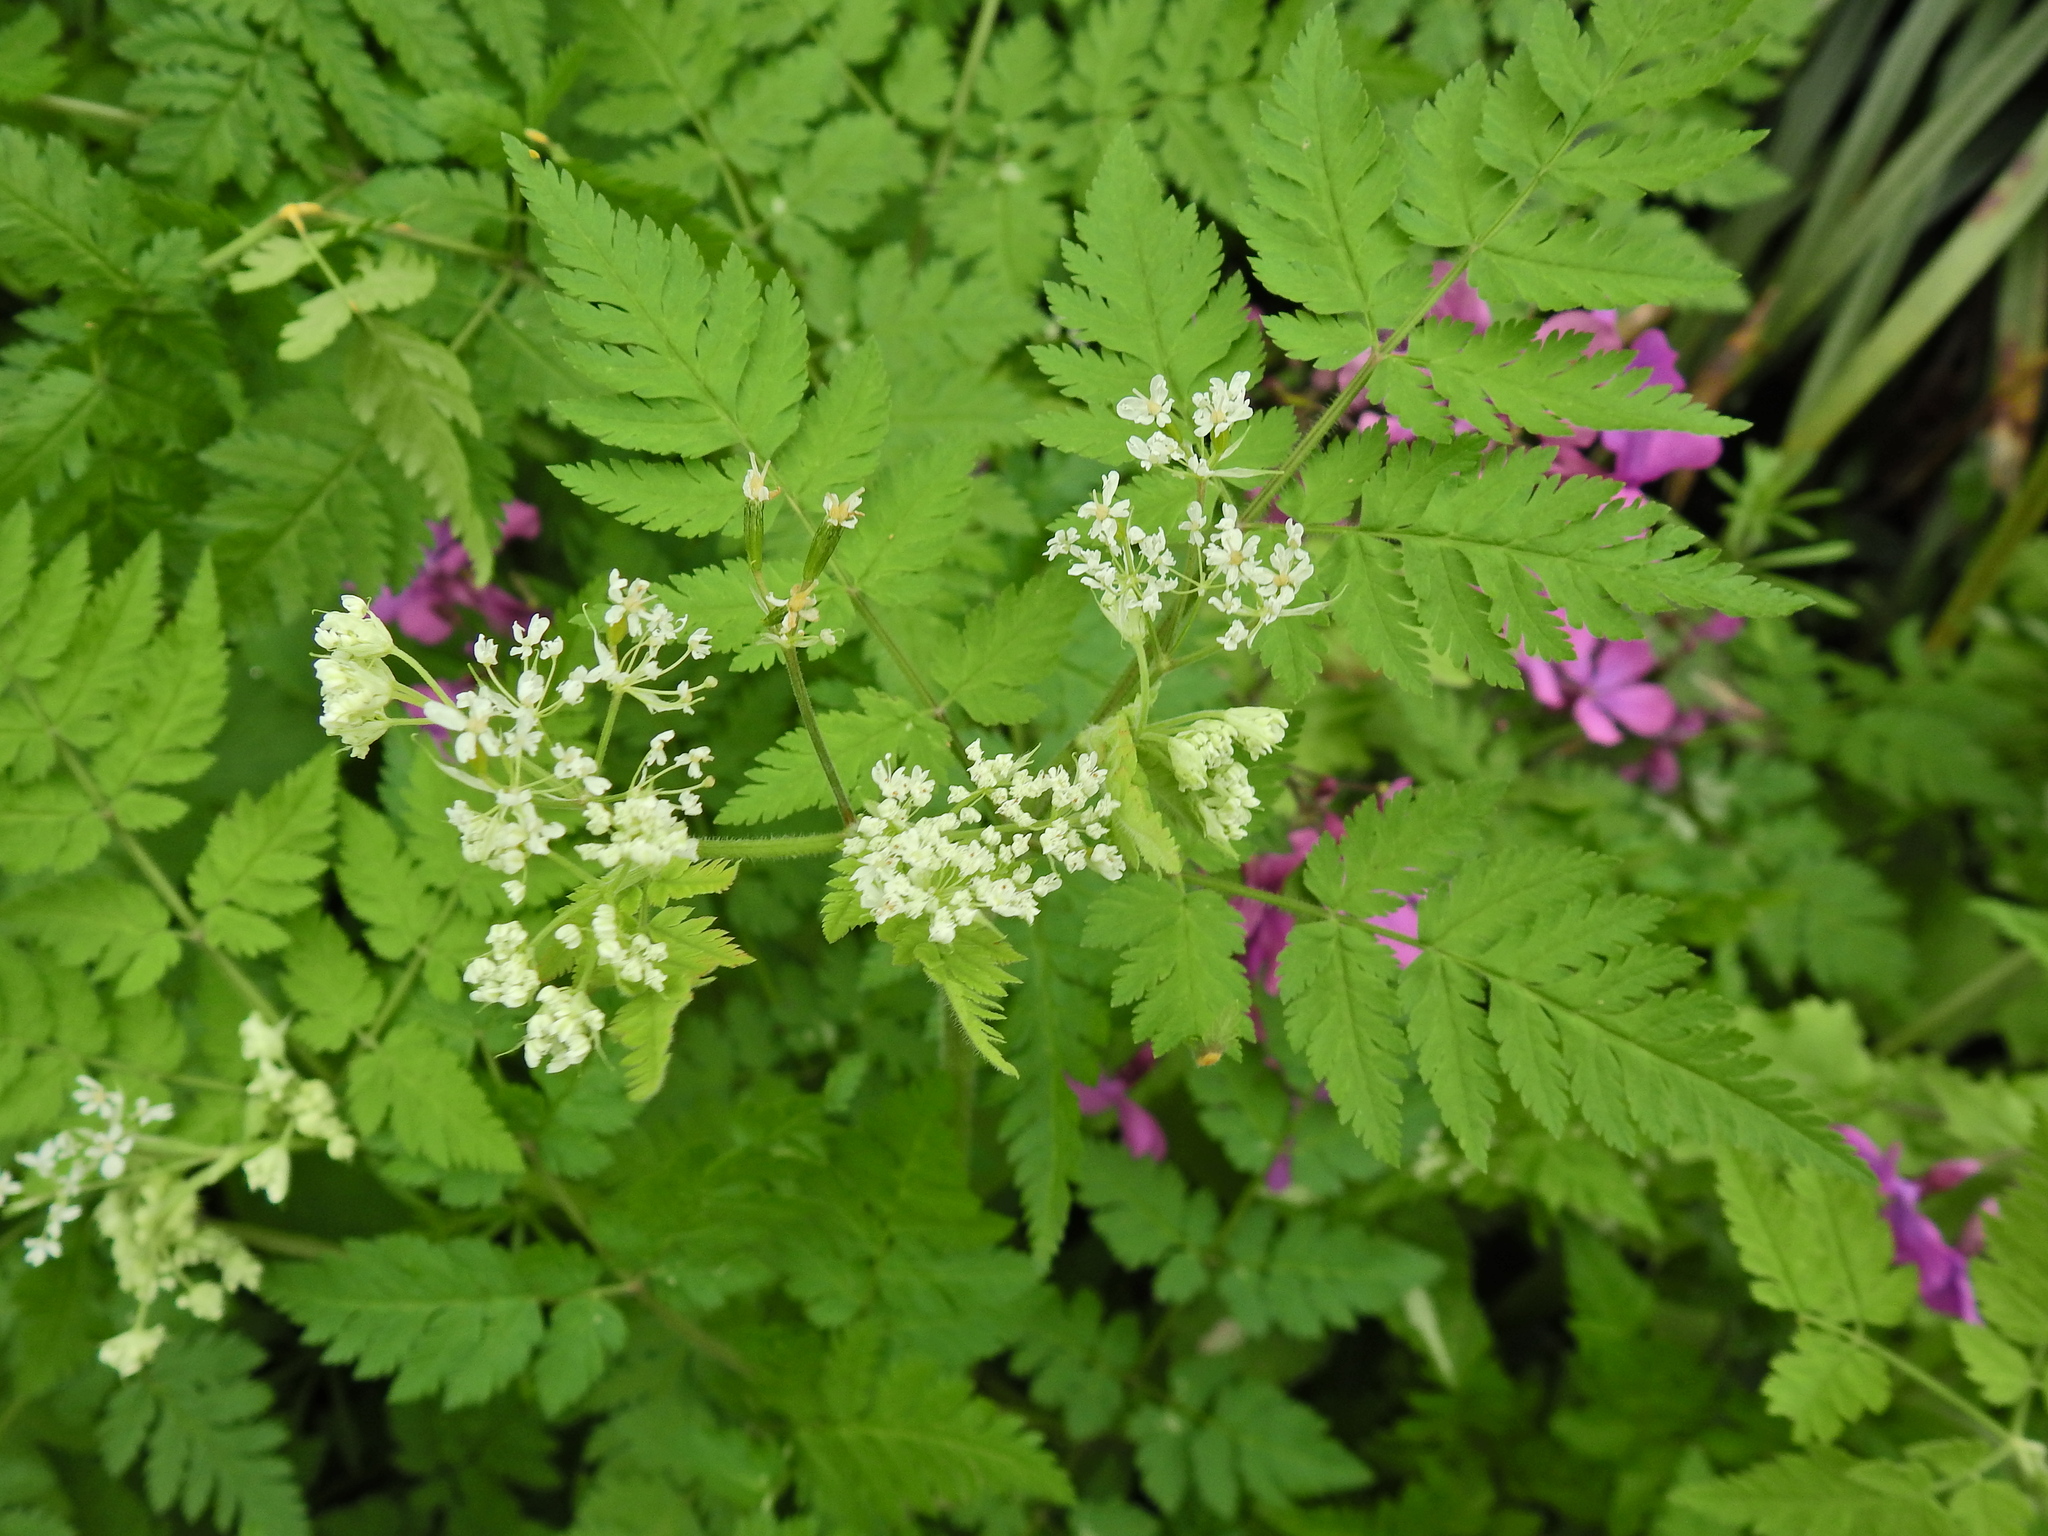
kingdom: Plantae
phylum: Tracheophyta
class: Magnoliopsida
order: Apiales
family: Apiaceae
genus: Myrrhis
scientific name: Myrrhis odorata
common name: Sweet cicely
